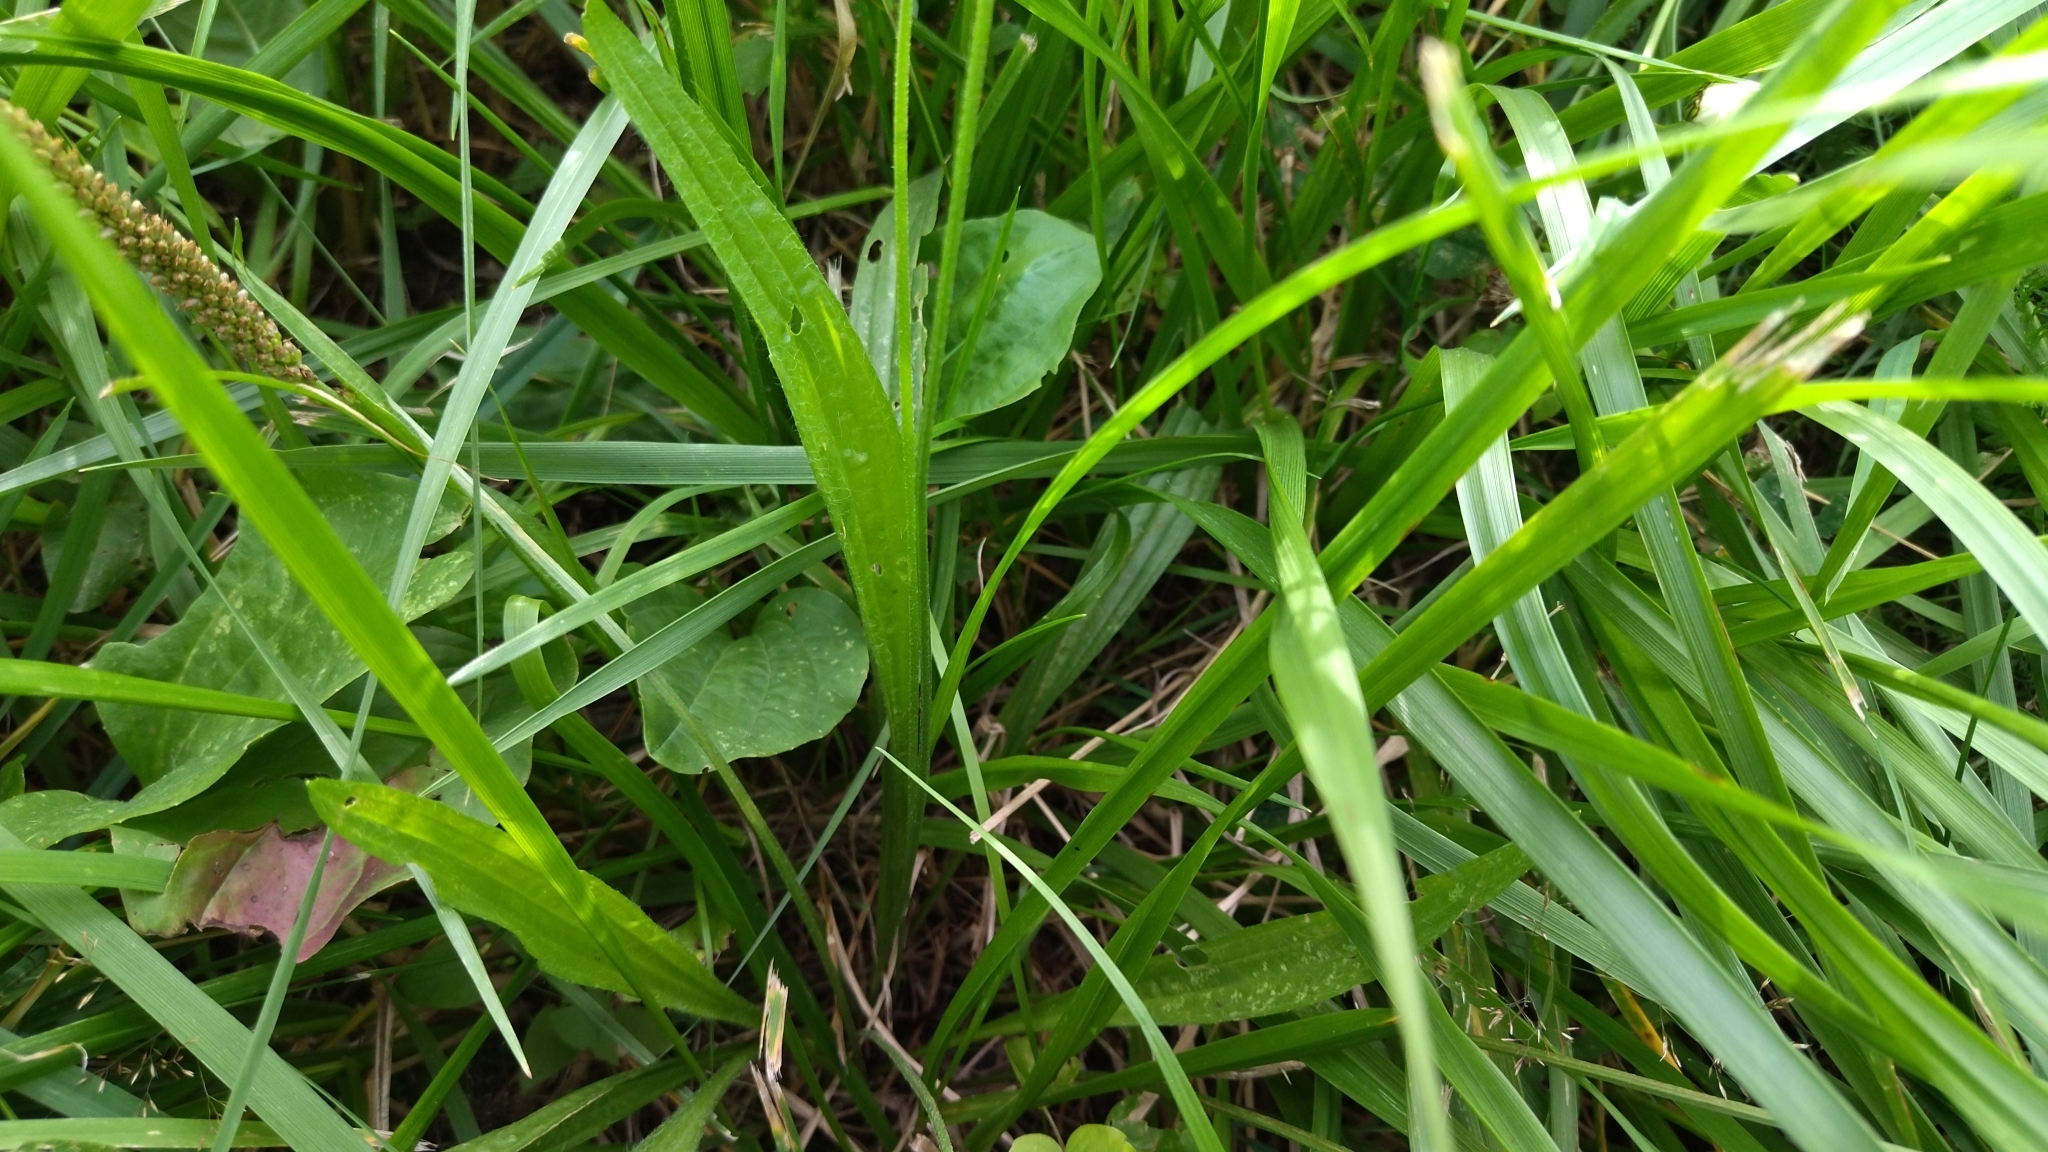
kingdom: Plantae
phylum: Tracheophyta
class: Magnoliopsida
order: Lamiales
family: Plantaginaceae
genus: Plantago
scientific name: Plantago lanceolata
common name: Ribwort plantain
